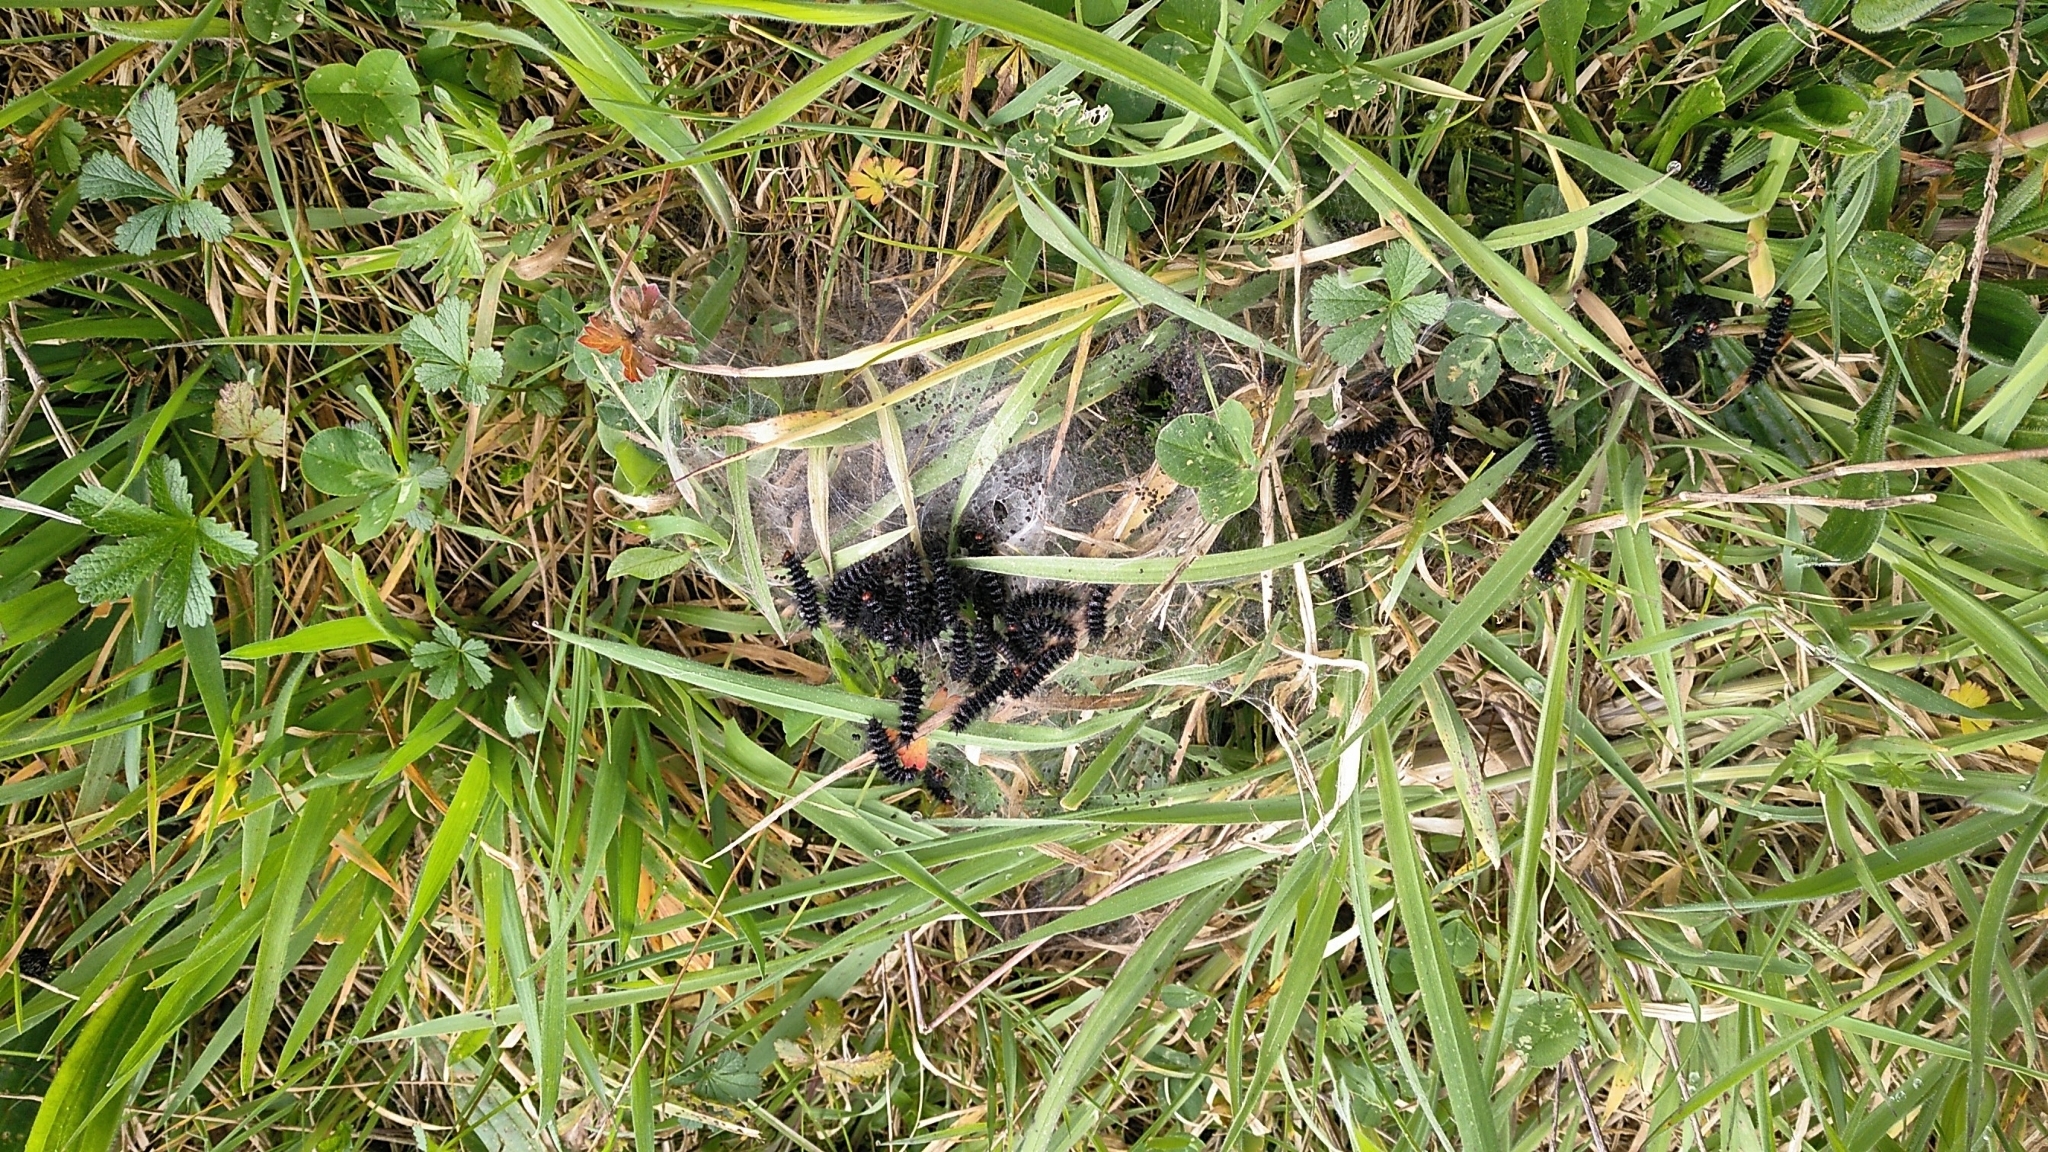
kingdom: Animalia
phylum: Arthropoda
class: Insecta
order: Lepidoptera
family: Nymphalidae
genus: Melitaea
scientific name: Melitaea cinxia
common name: Glanville fritillary
